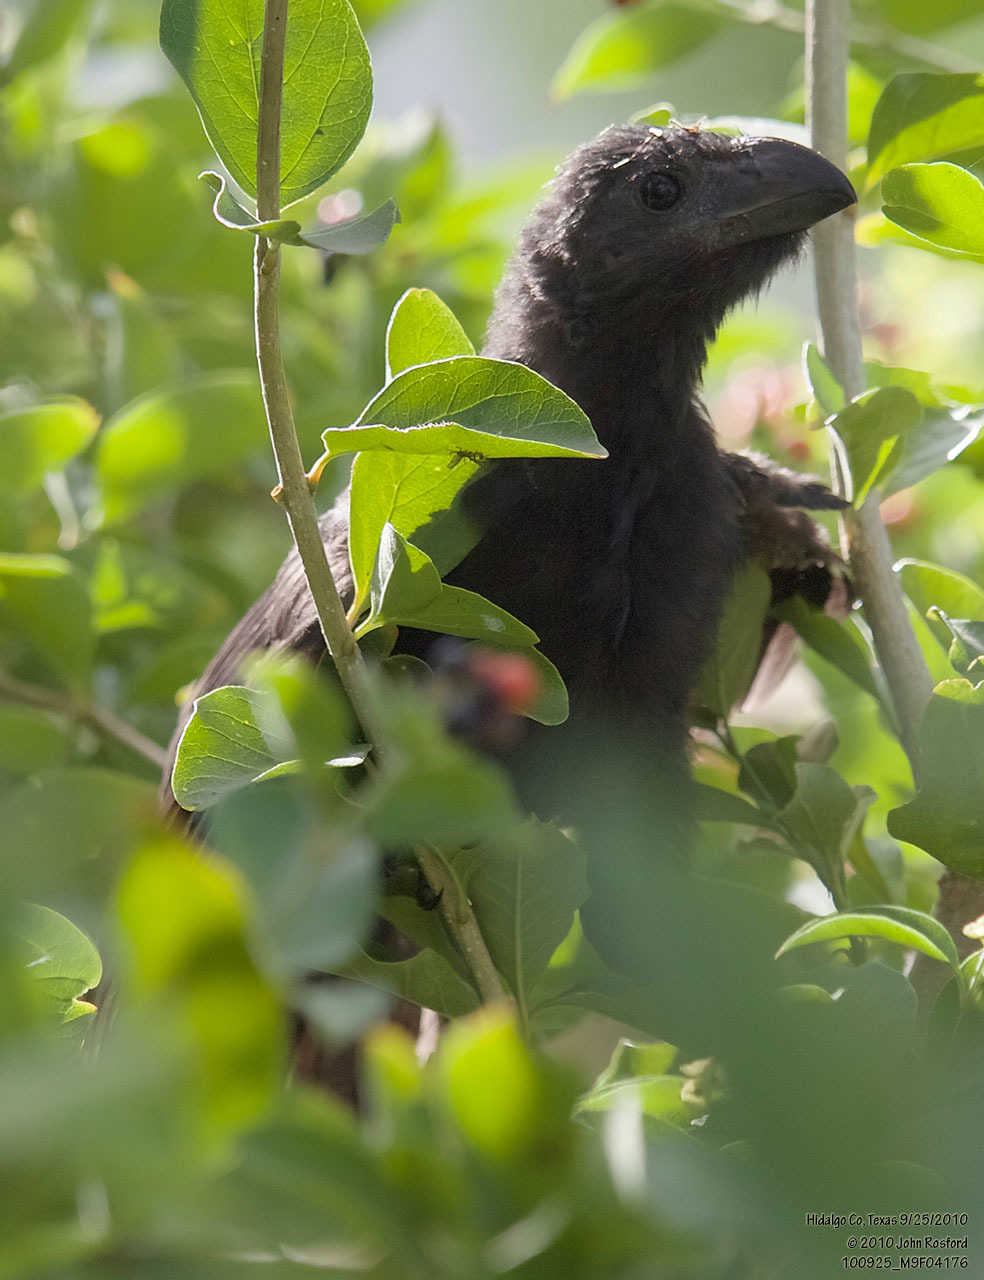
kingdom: Animalia
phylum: Chordata
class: Aves
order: Cuculiformes
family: Cuculidae
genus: Crotophaga
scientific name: Crotophaga sulcirostris
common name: Groove-billed ani
